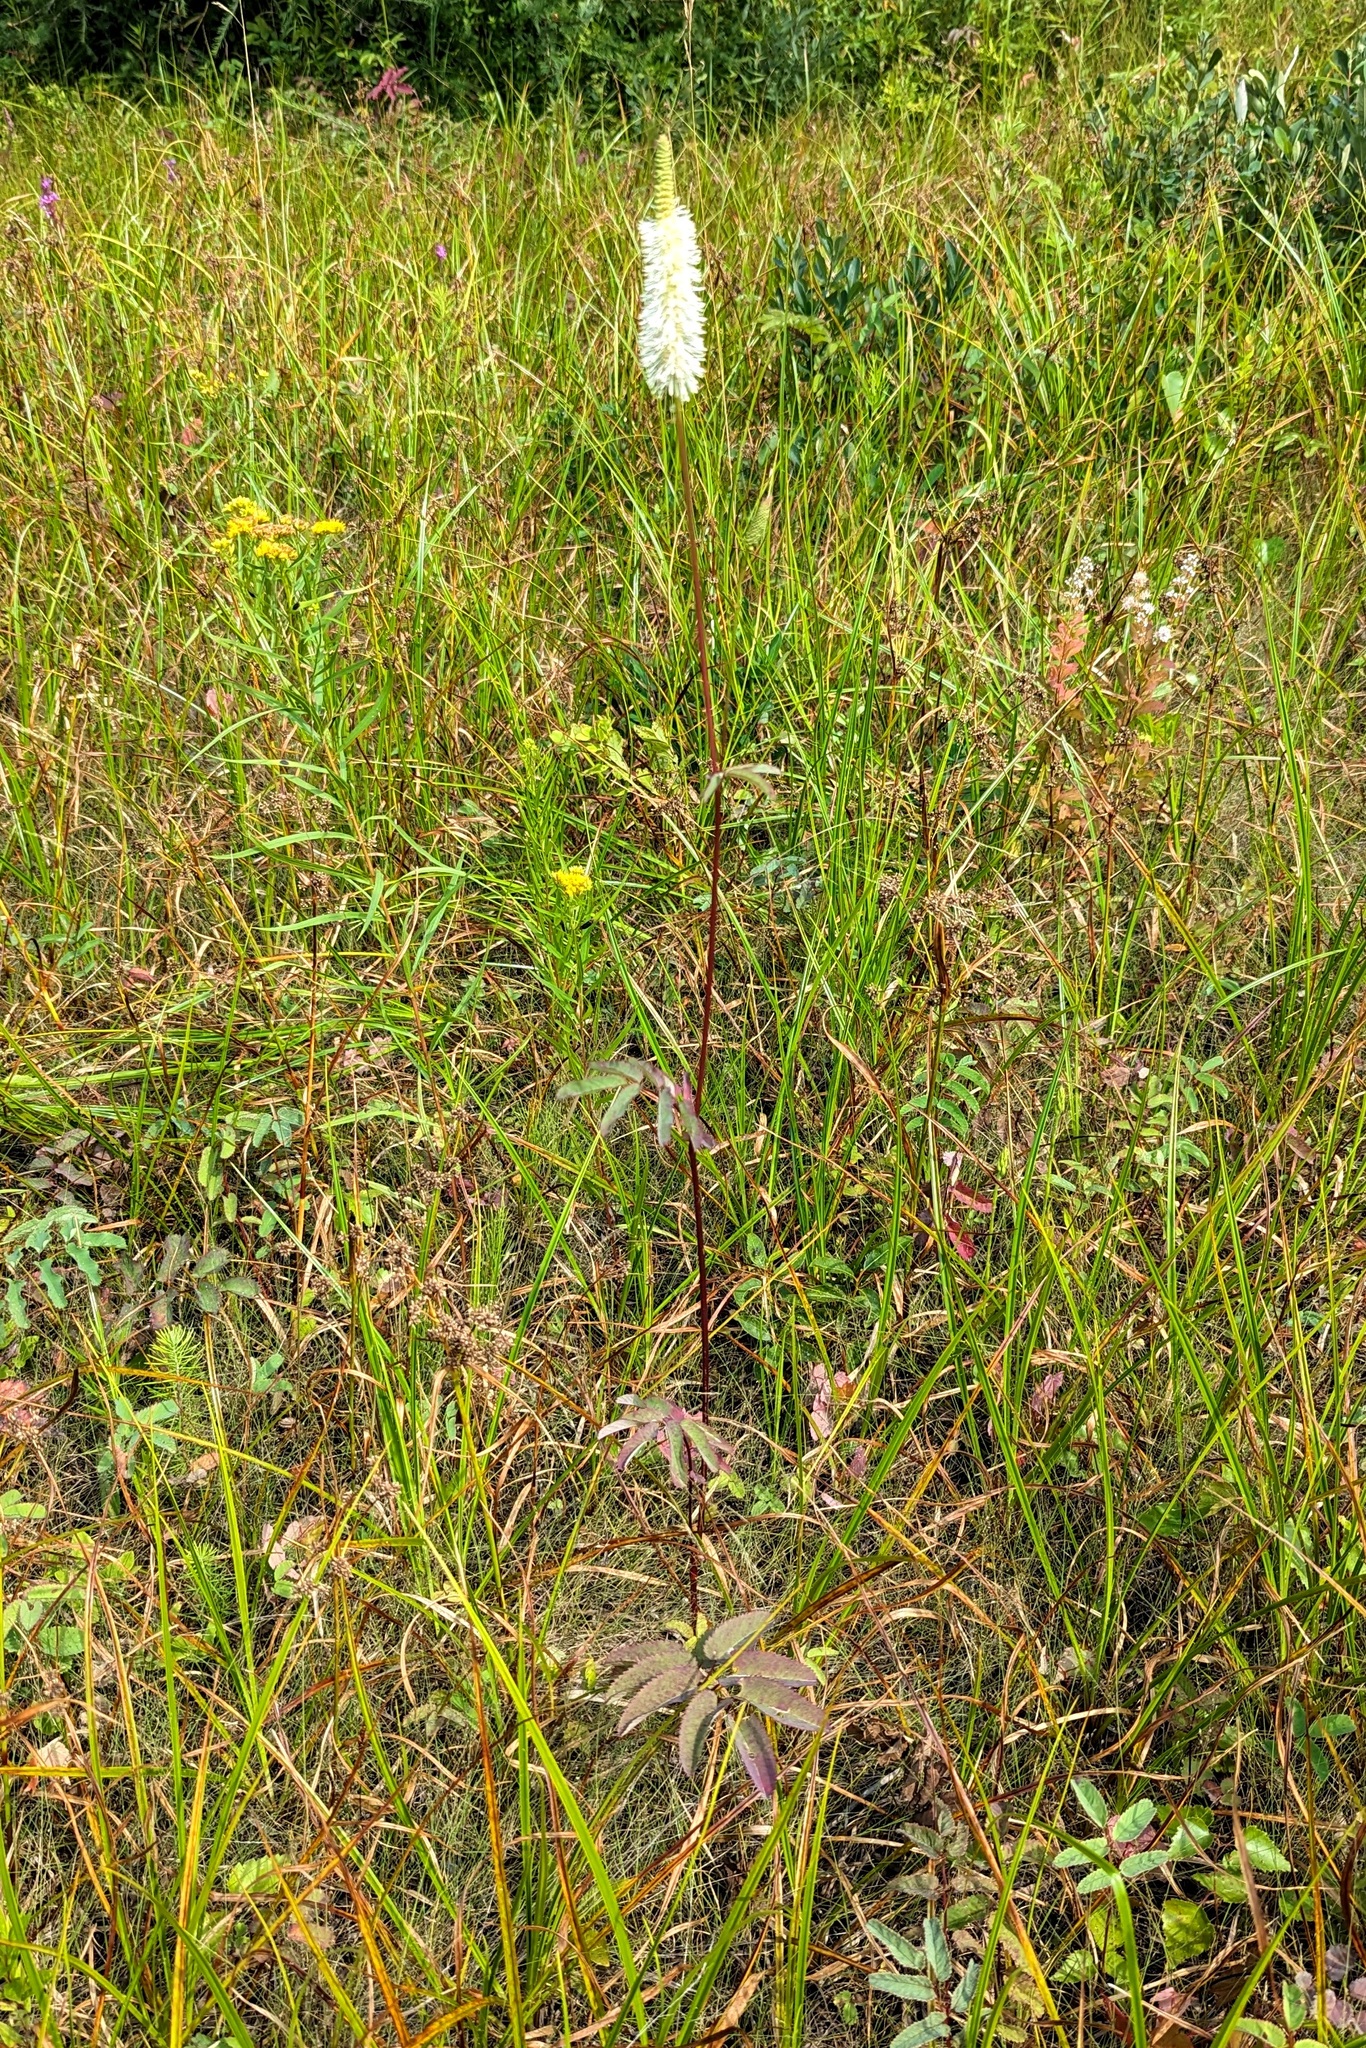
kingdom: Plantae
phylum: Tracheophyta
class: Magnoliopsida
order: Rosales
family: Rosaceae
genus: Sanguisorba
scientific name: Sanguisorba canadensis
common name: White burnet
